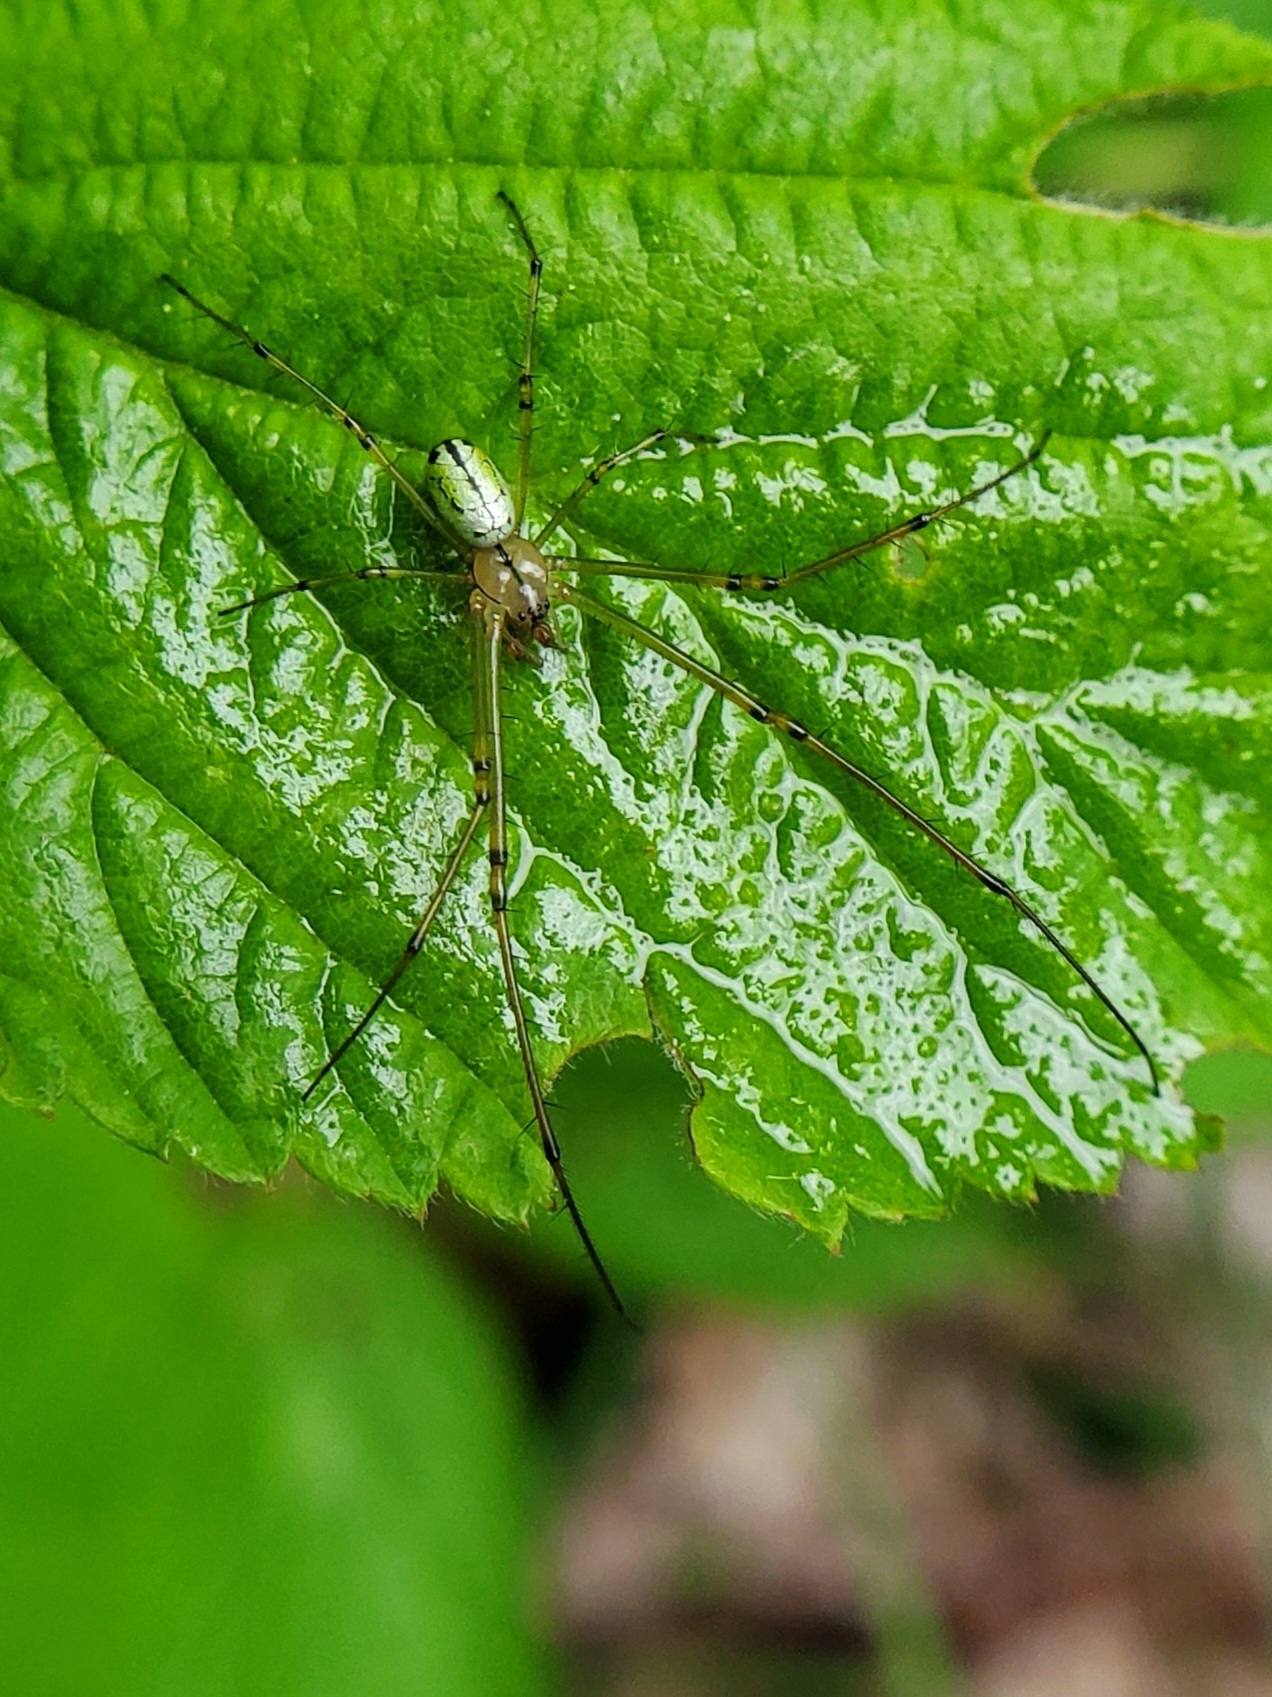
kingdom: Animalia
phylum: Arthropoda
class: Arachnida
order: Araneae
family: Tetragnathidae
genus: Leucauge
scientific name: Leucauge venusta
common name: Longjawed orb weavers
